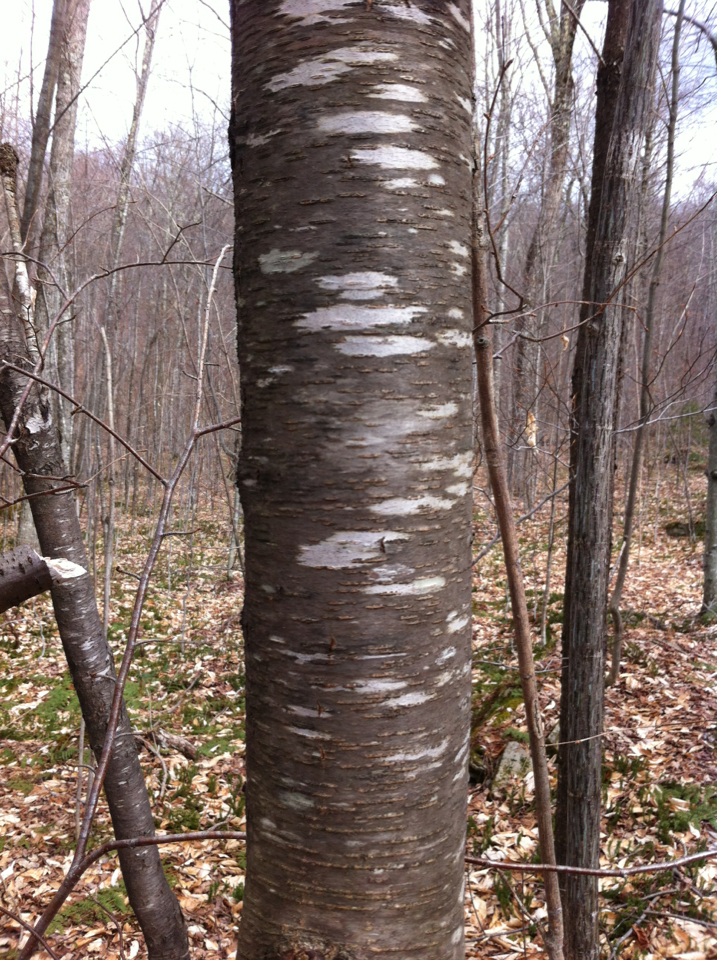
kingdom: Plantae
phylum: Tracheophyta
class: Magnoliopsida
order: Rosales
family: Rosaceae
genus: Prunus
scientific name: Prunus pensylvanica
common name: Pin cherry
